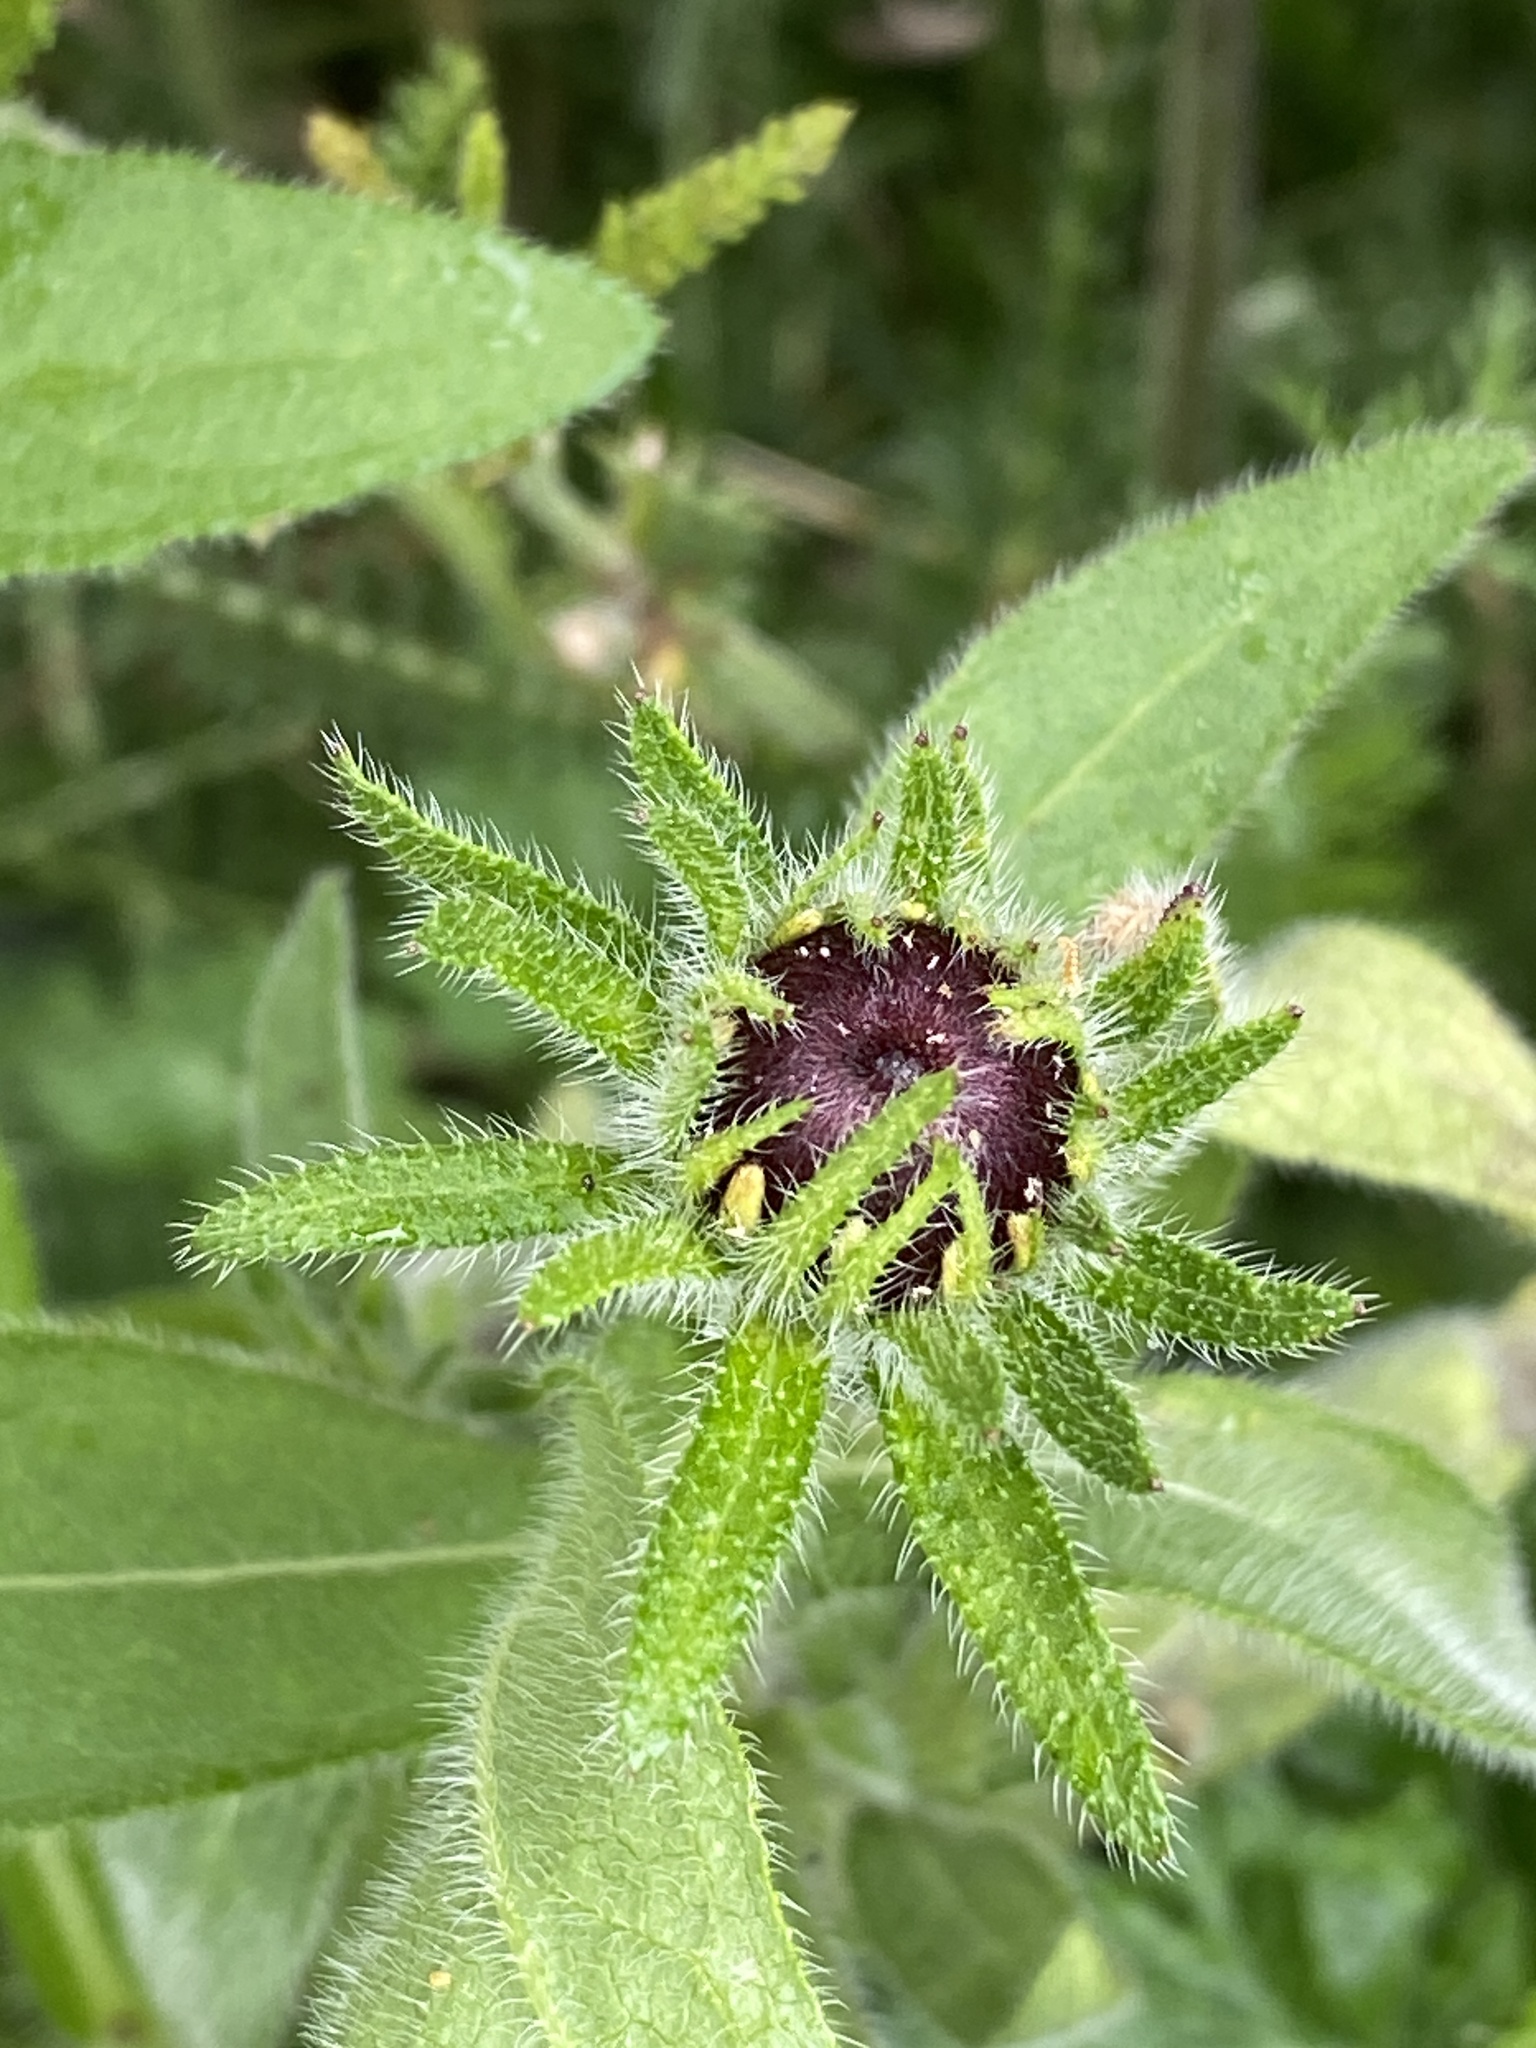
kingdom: Plantae
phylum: Tracheophyta
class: Magnoliopsida
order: Asterales
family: Asteraceae
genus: Rudbeckia
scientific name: Rudbeckia hirta
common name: Black-eyed-susan
